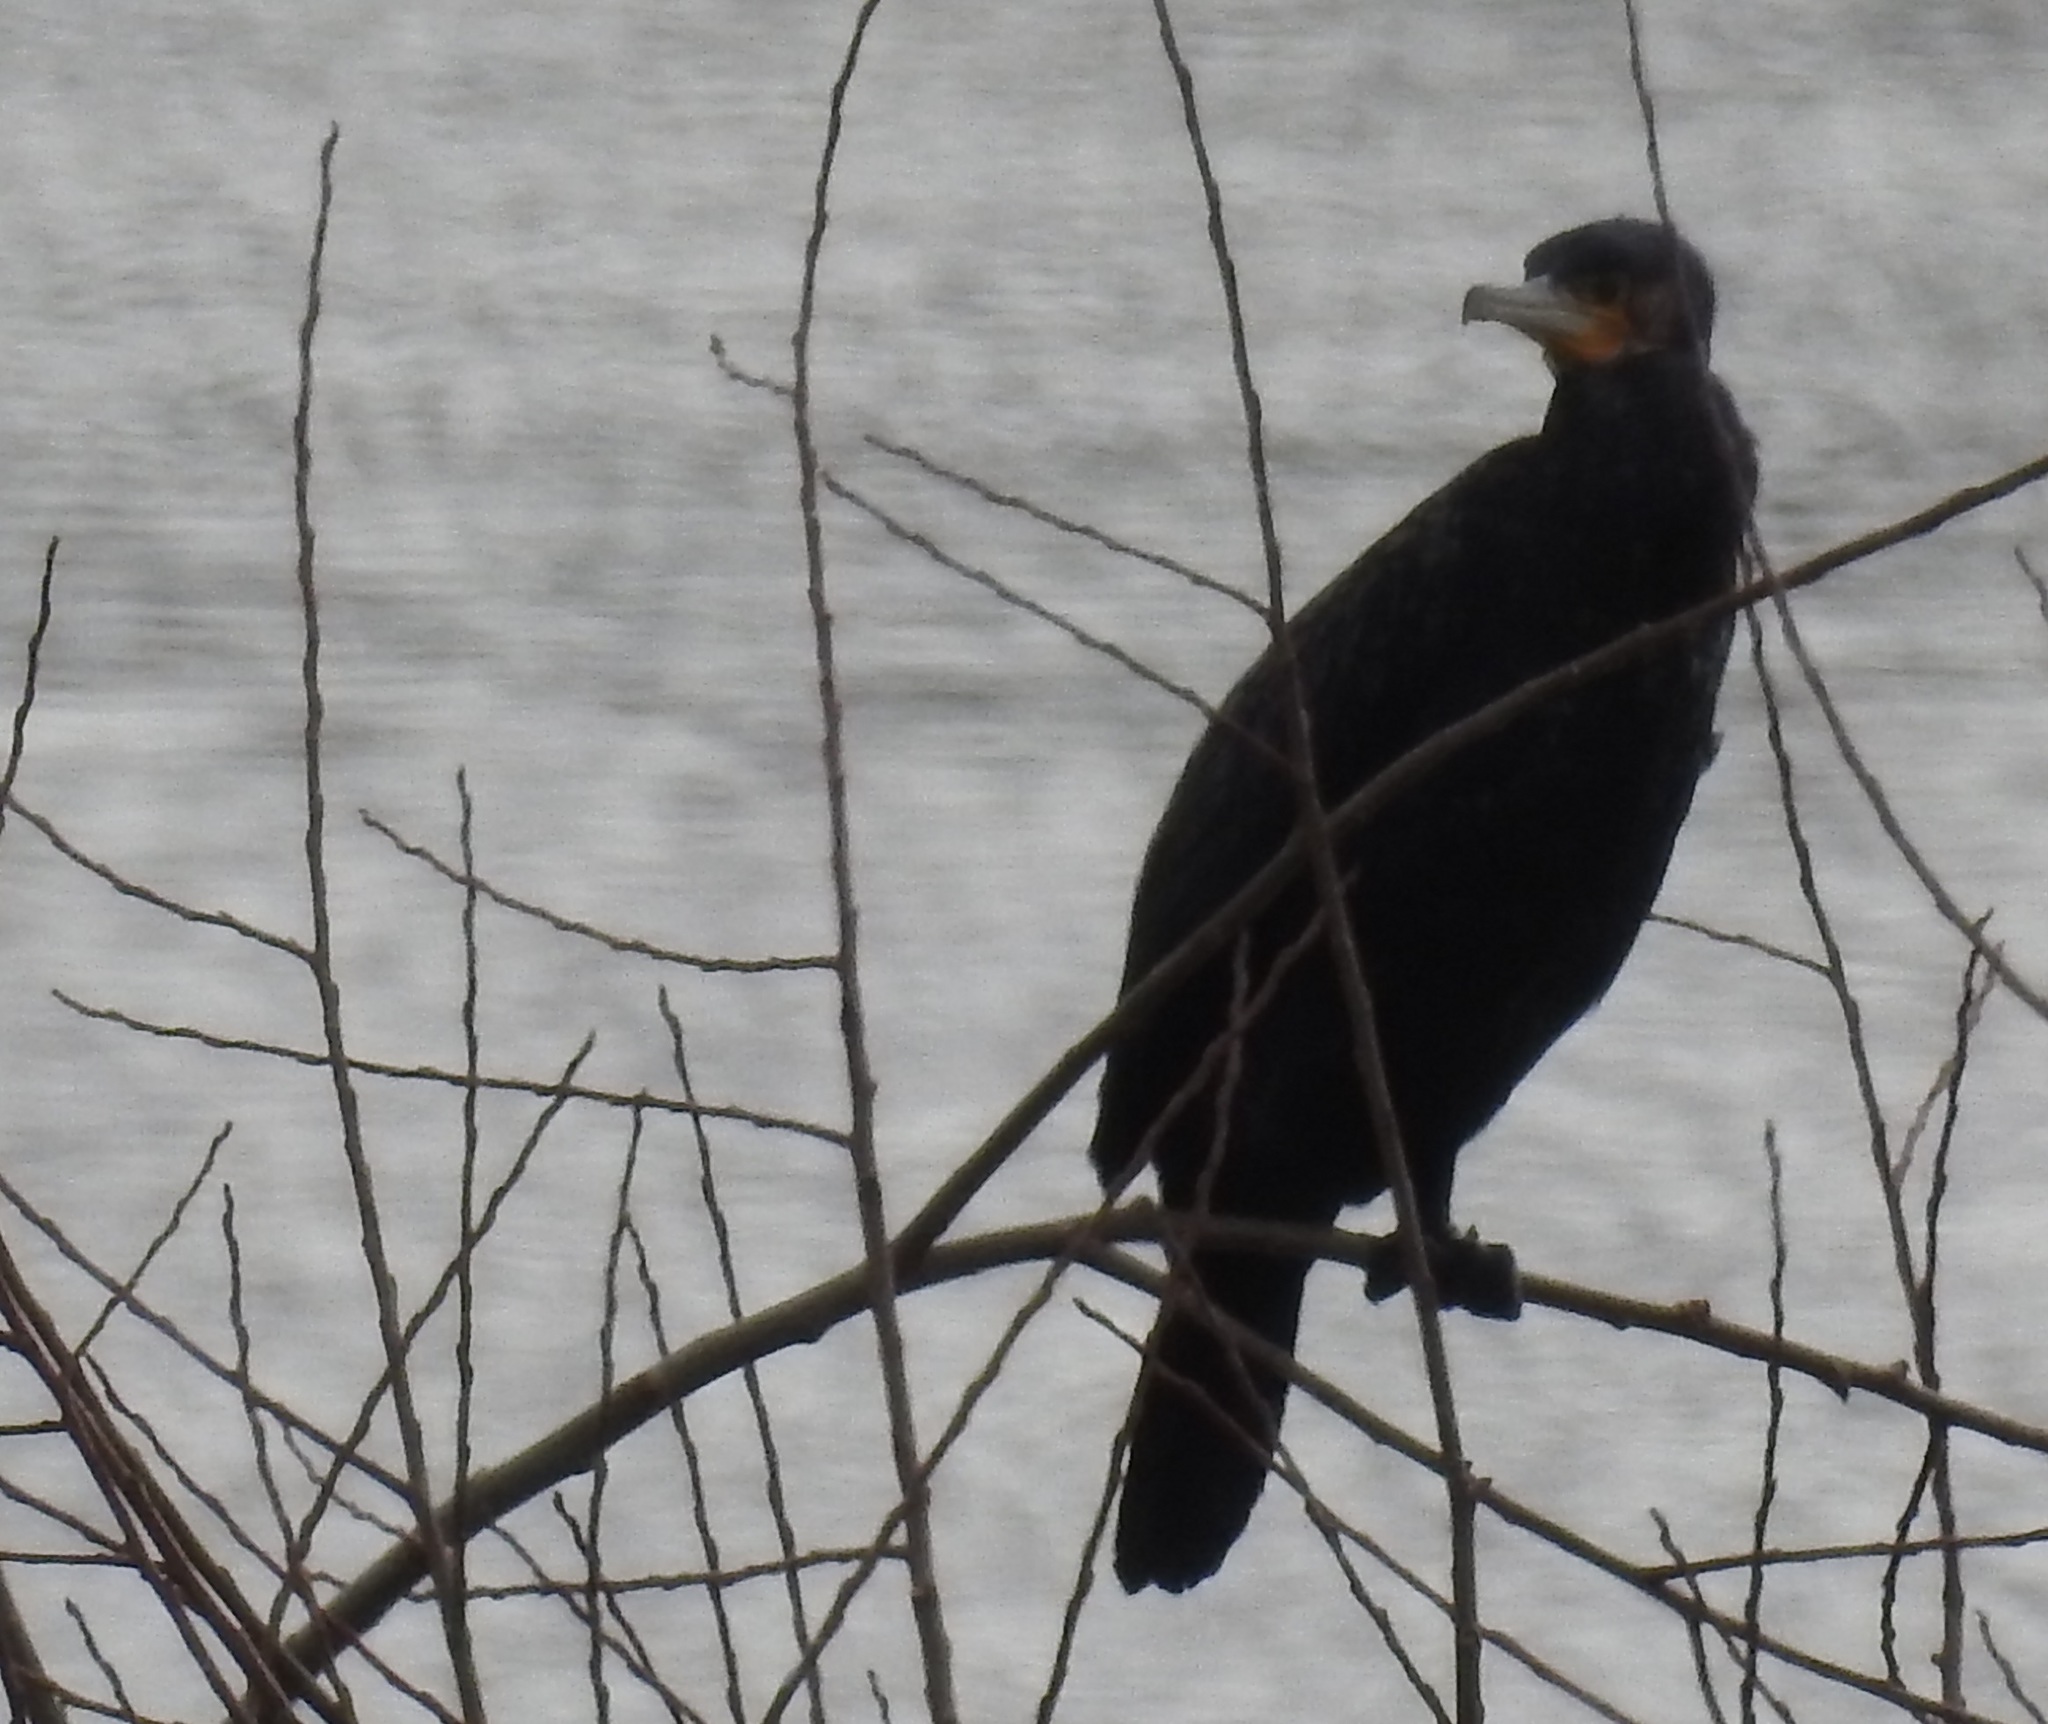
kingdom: Animalia
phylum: Chordata
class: Aves
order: Suliformes
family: Phalacrocoracidae
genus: Phalacrocorax
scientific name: Phalacrocorax carbo
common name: Great cormorant
